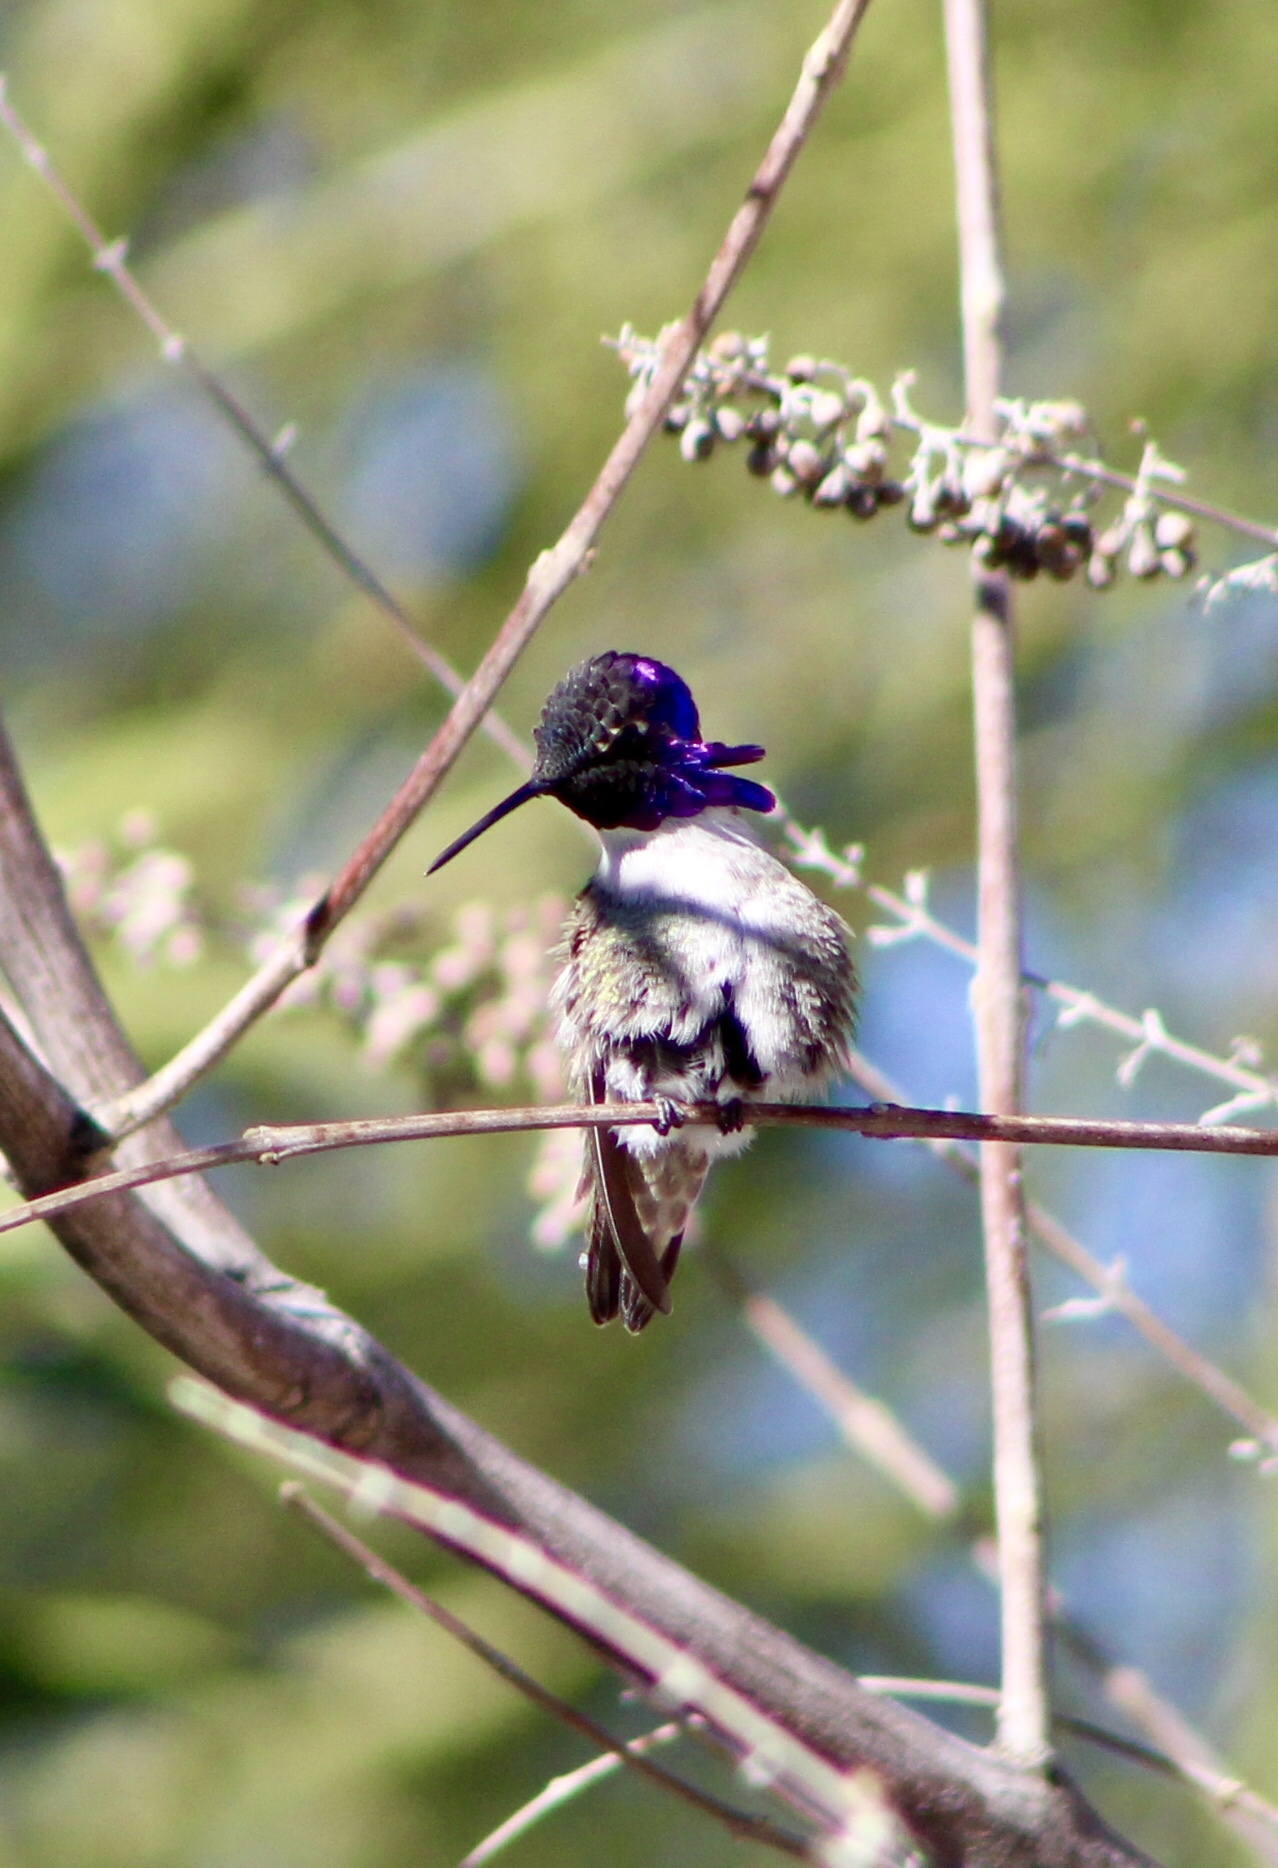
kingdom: Animalia
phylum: Chordata
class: Aves
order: Apodiformes
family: Trochilidae
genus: Calypte
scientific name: Calypte costae
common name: Costa's hummingbird
